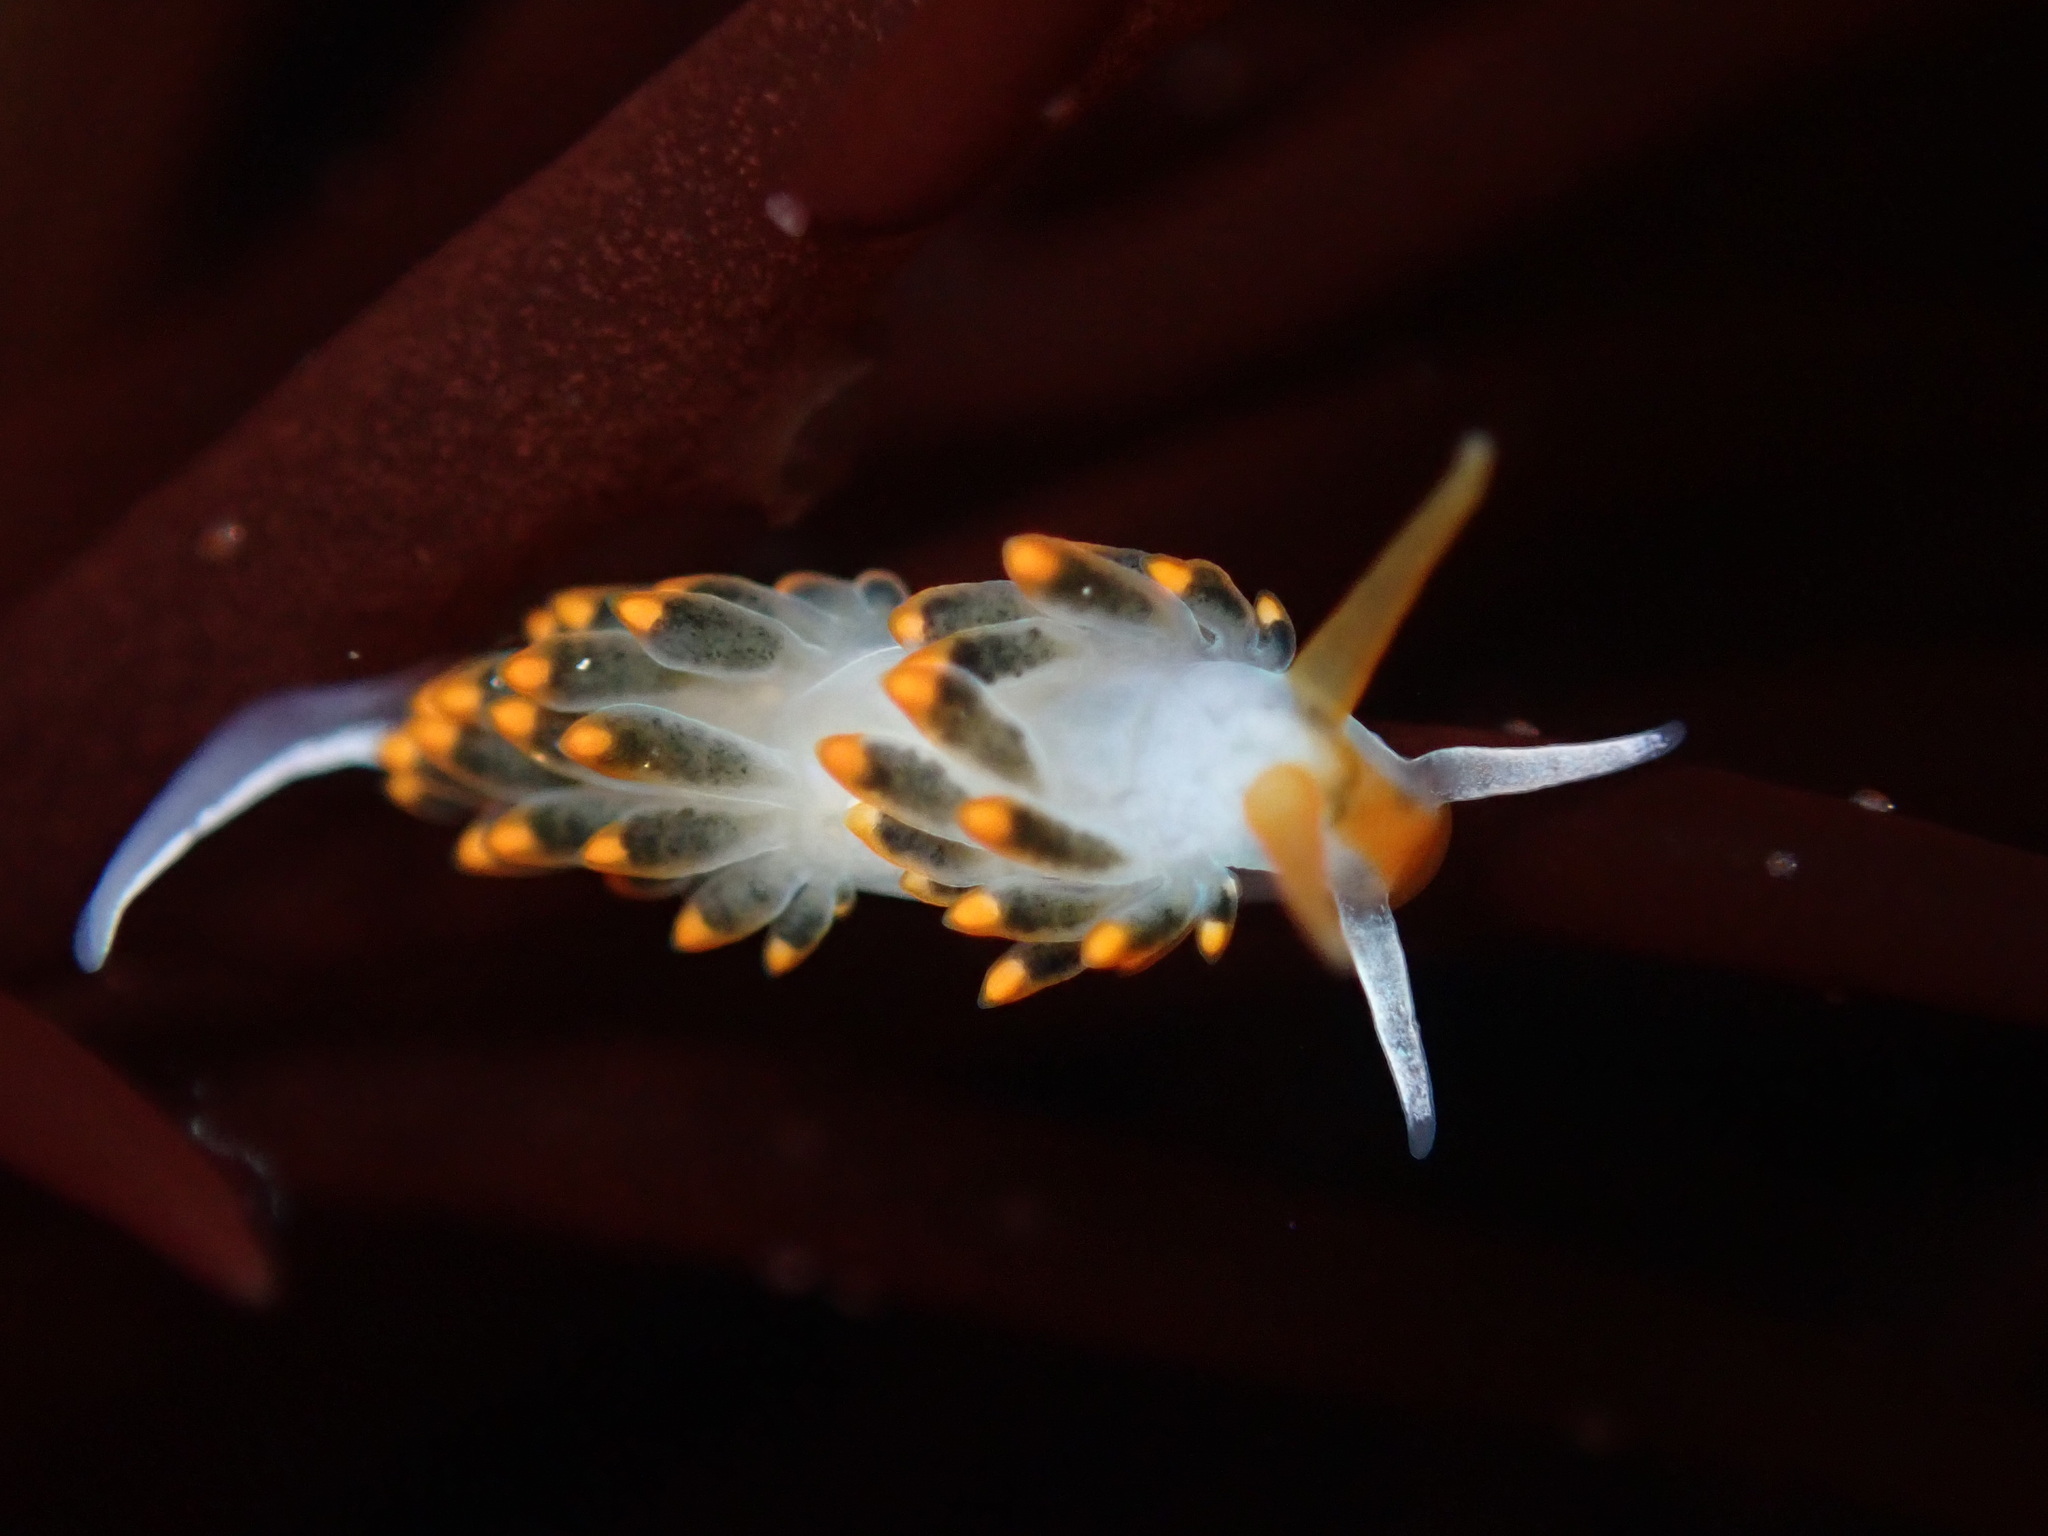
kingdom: Animalia
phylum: Mollusca
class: Gastropoda
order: Nudibranchia
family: Trinchesiidae
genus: Diaphoreolis
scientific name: Diaphoreolis lagunae
